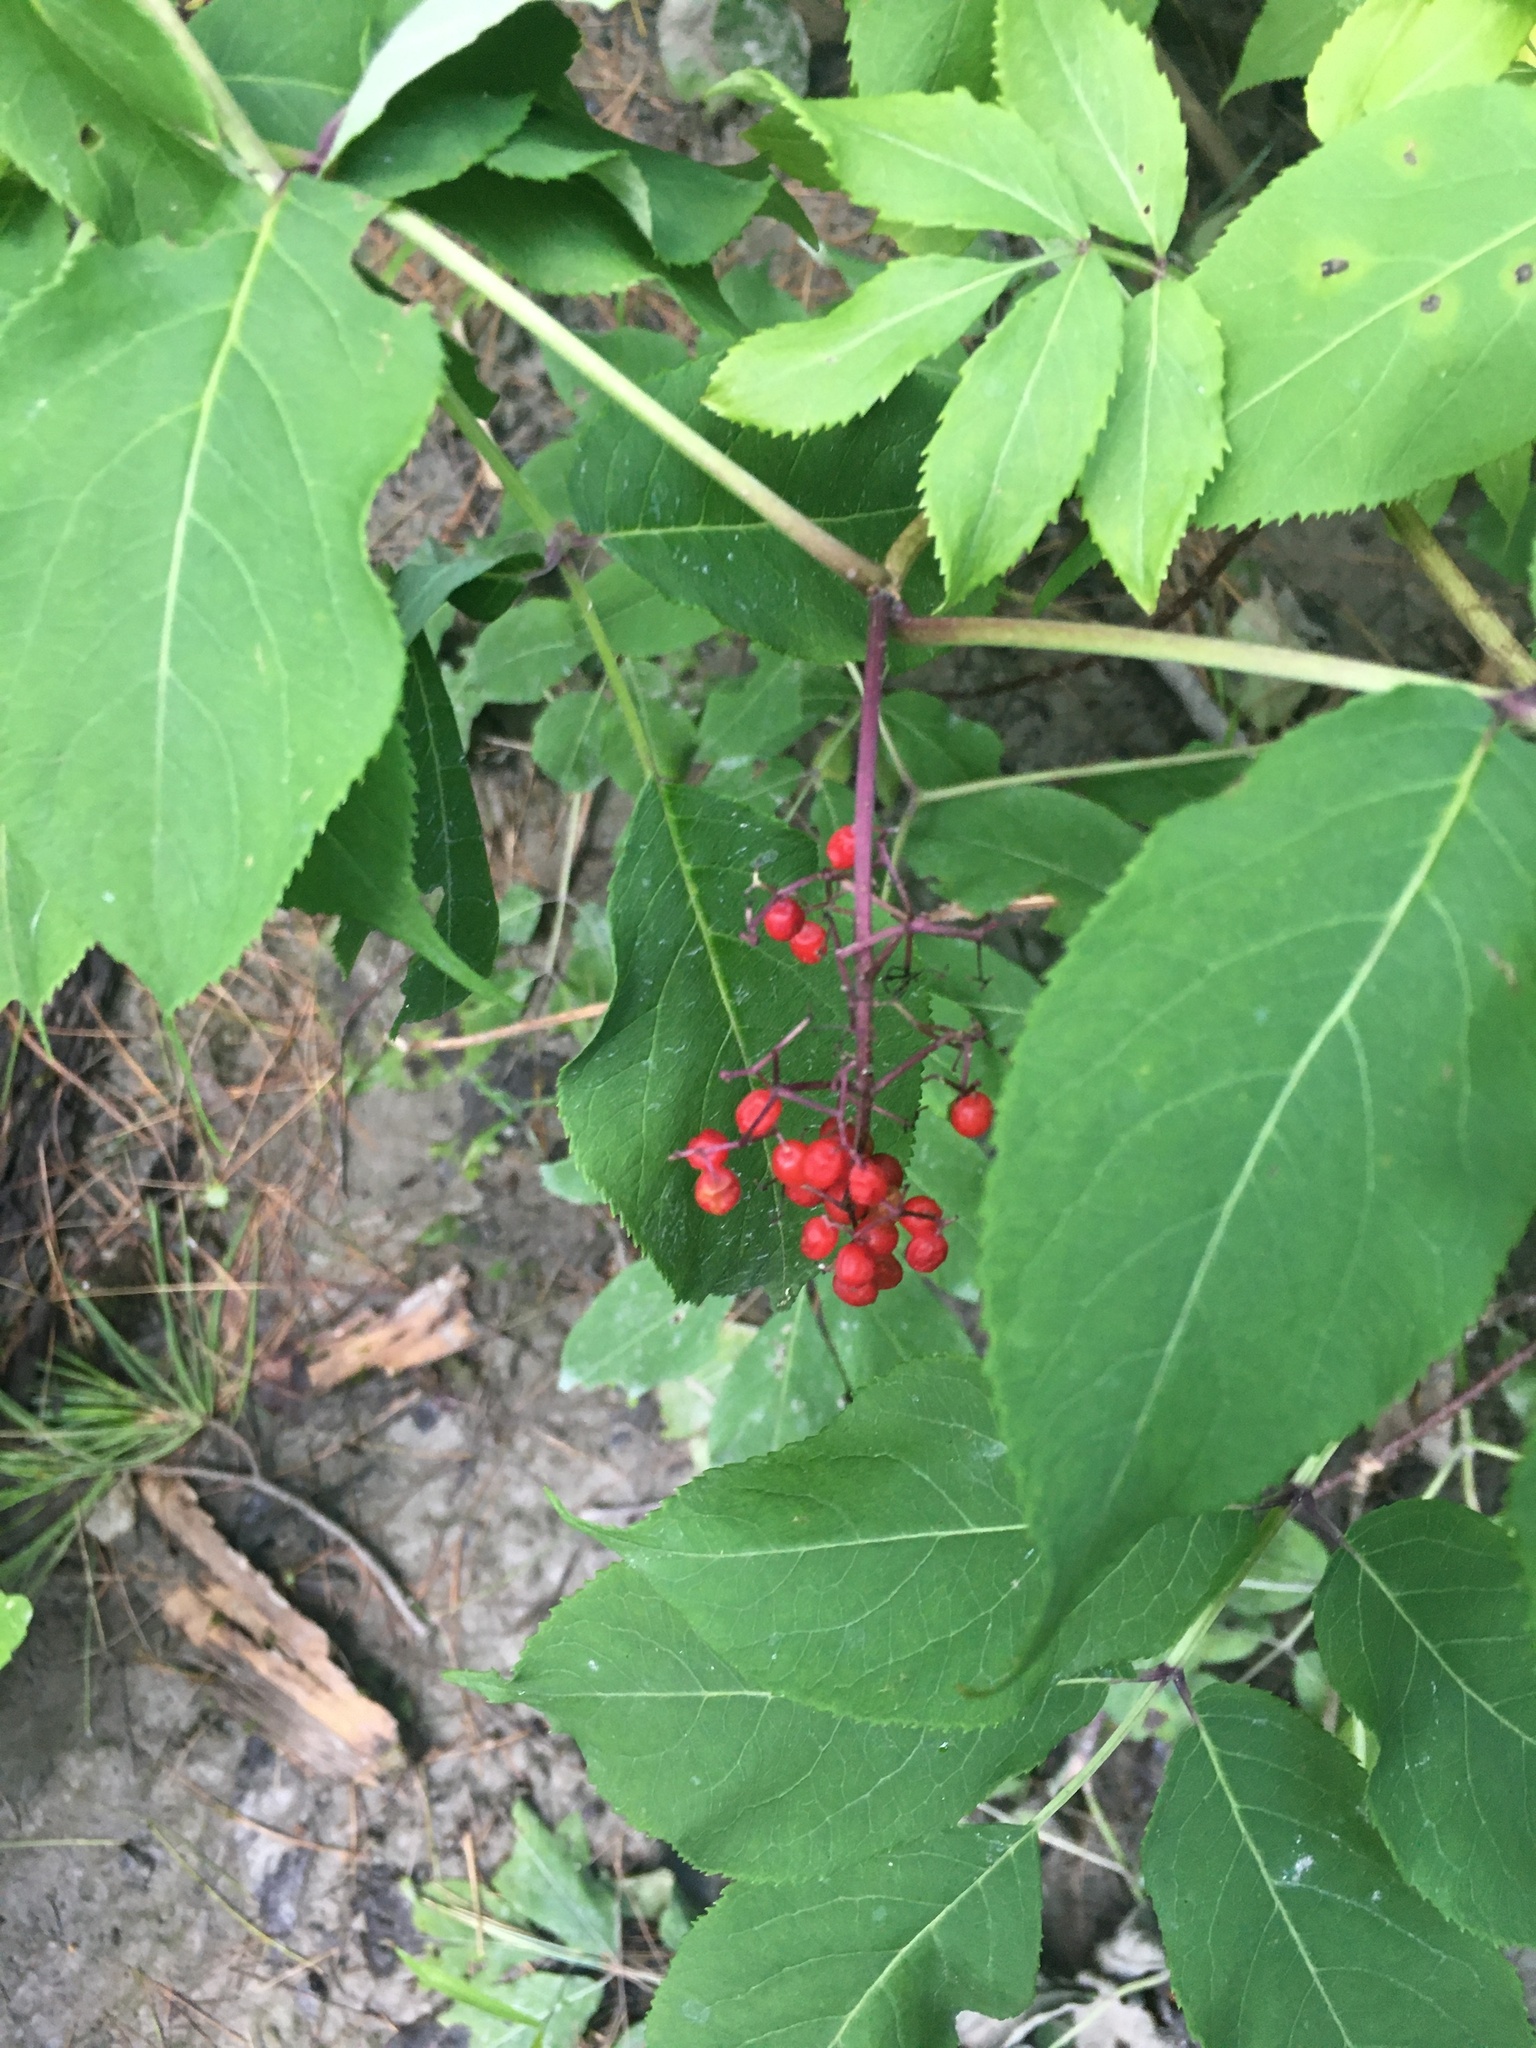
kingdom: Plantae
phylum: Tracheophyta
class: Magnoliopsida
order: Dipsacales
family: Viburnaceae
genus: Sambucus
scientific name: Sambucus racemosa
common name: Red-berried elder
